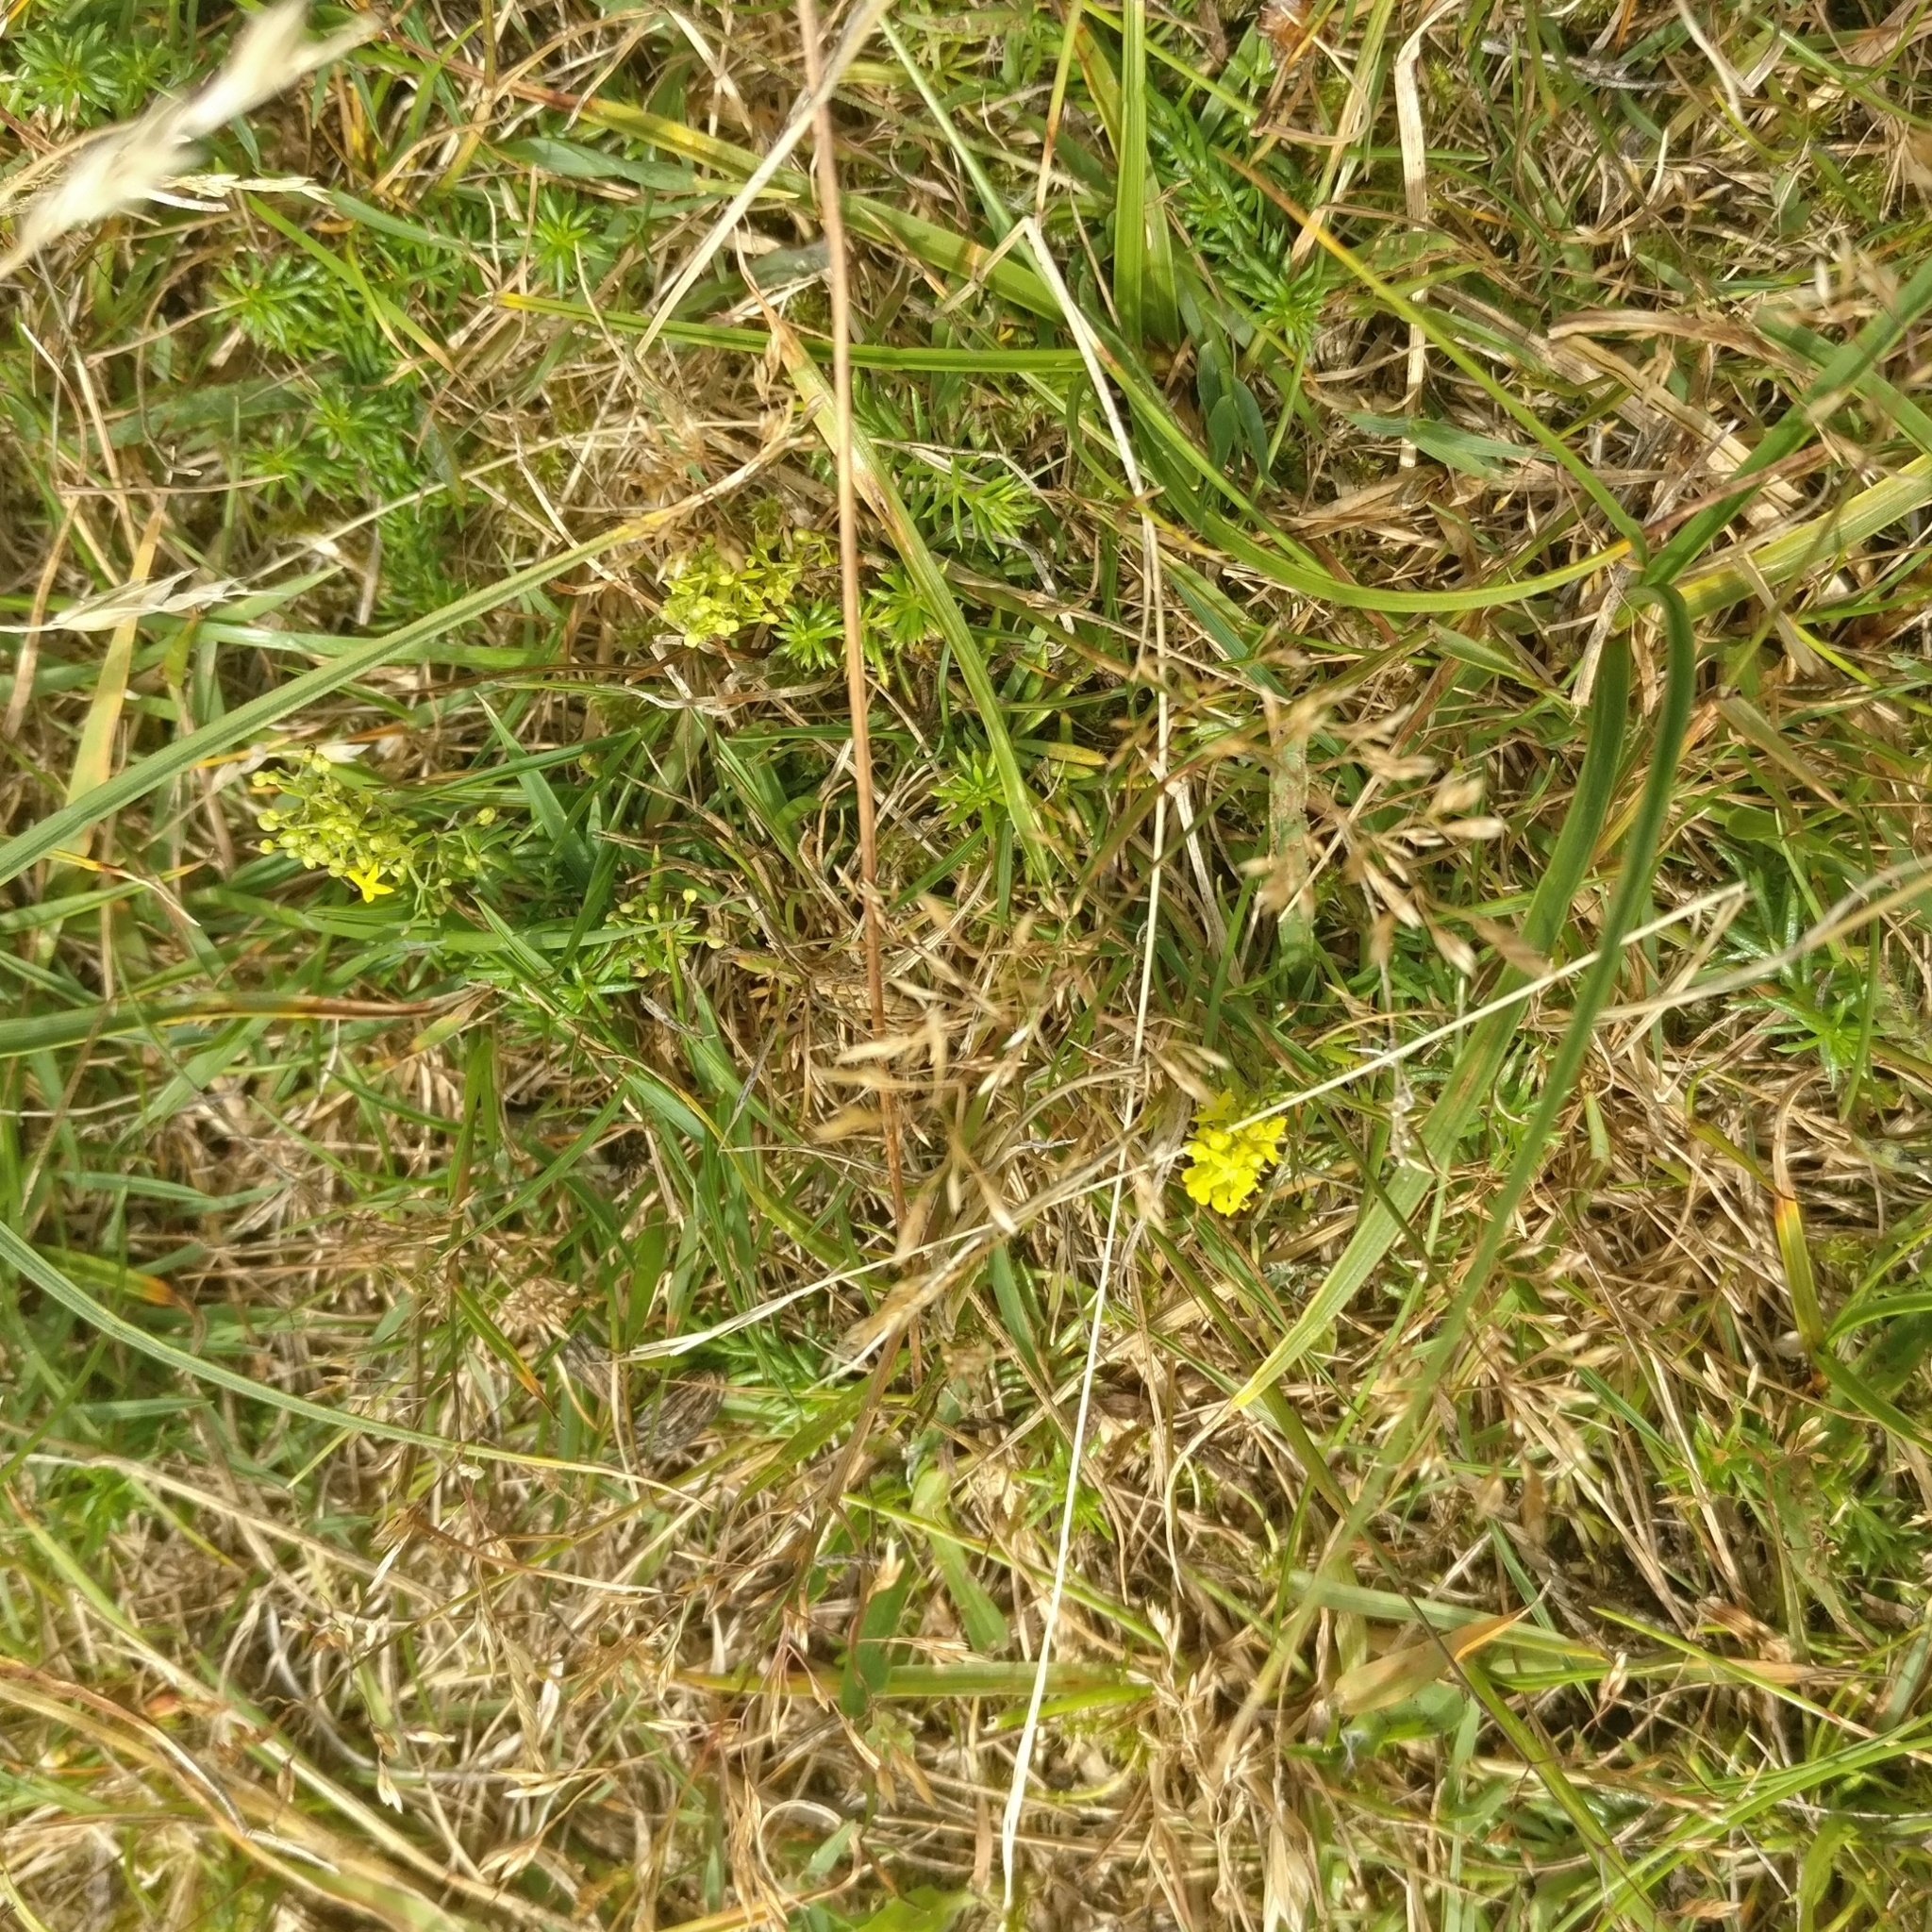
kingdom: Plantae
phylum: Tracheophyta
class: Magnoliopsida
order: Gentianales
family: Rubiaceae
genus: Galium
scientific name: Galium verum
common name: Lady's bedstraw
